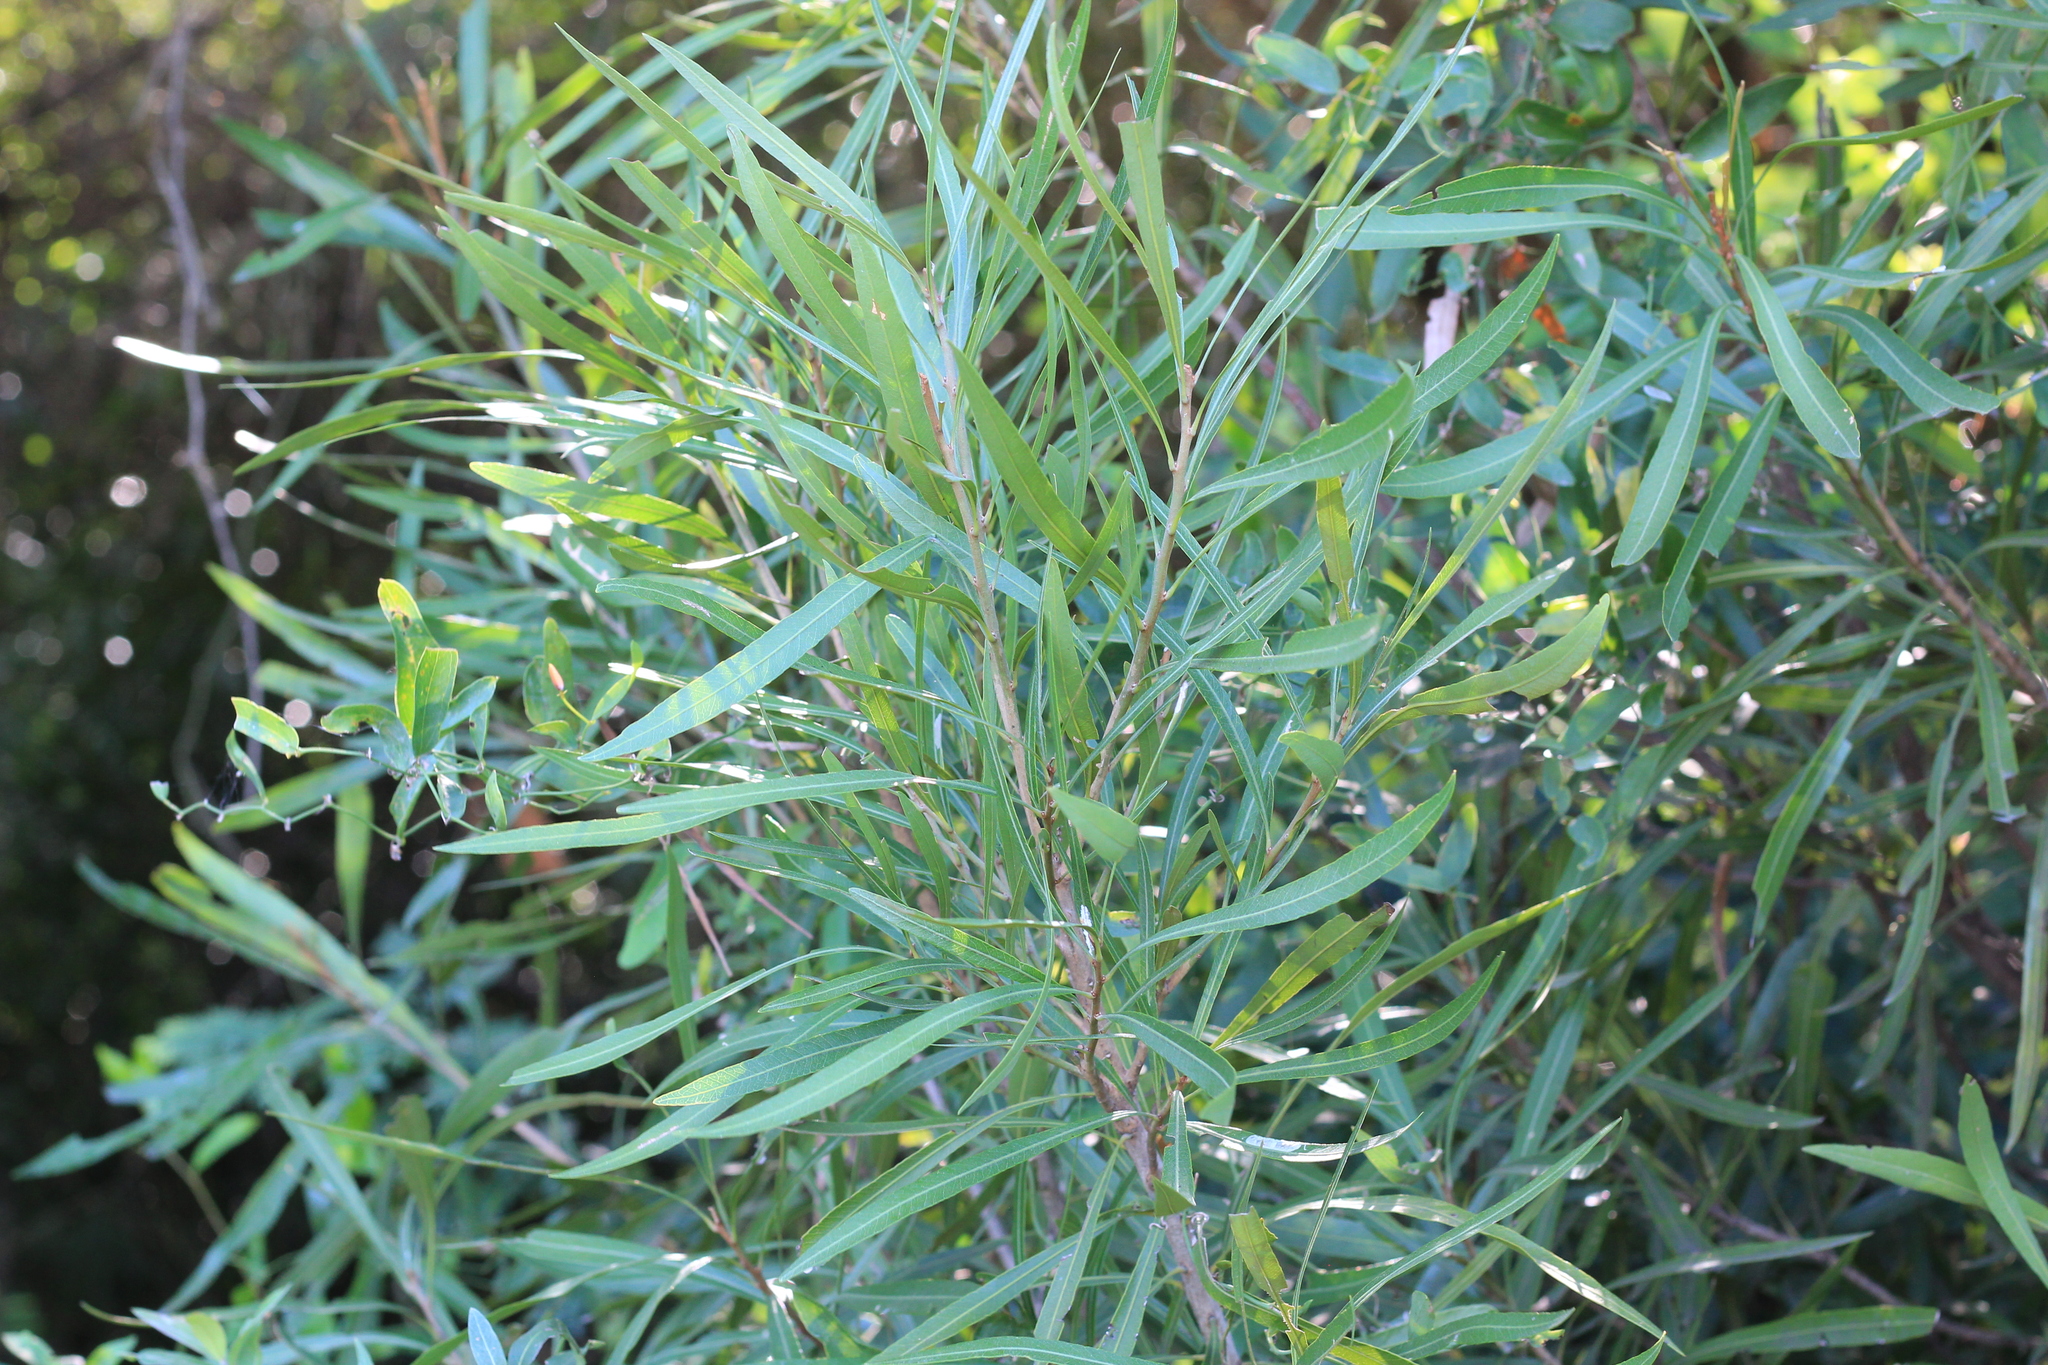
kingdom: Plantae
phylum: Tracheophyta
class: Magnoliopsida
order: Ericales
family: Sapotaceae
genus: Labatia
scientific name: Labatia salicifolia
